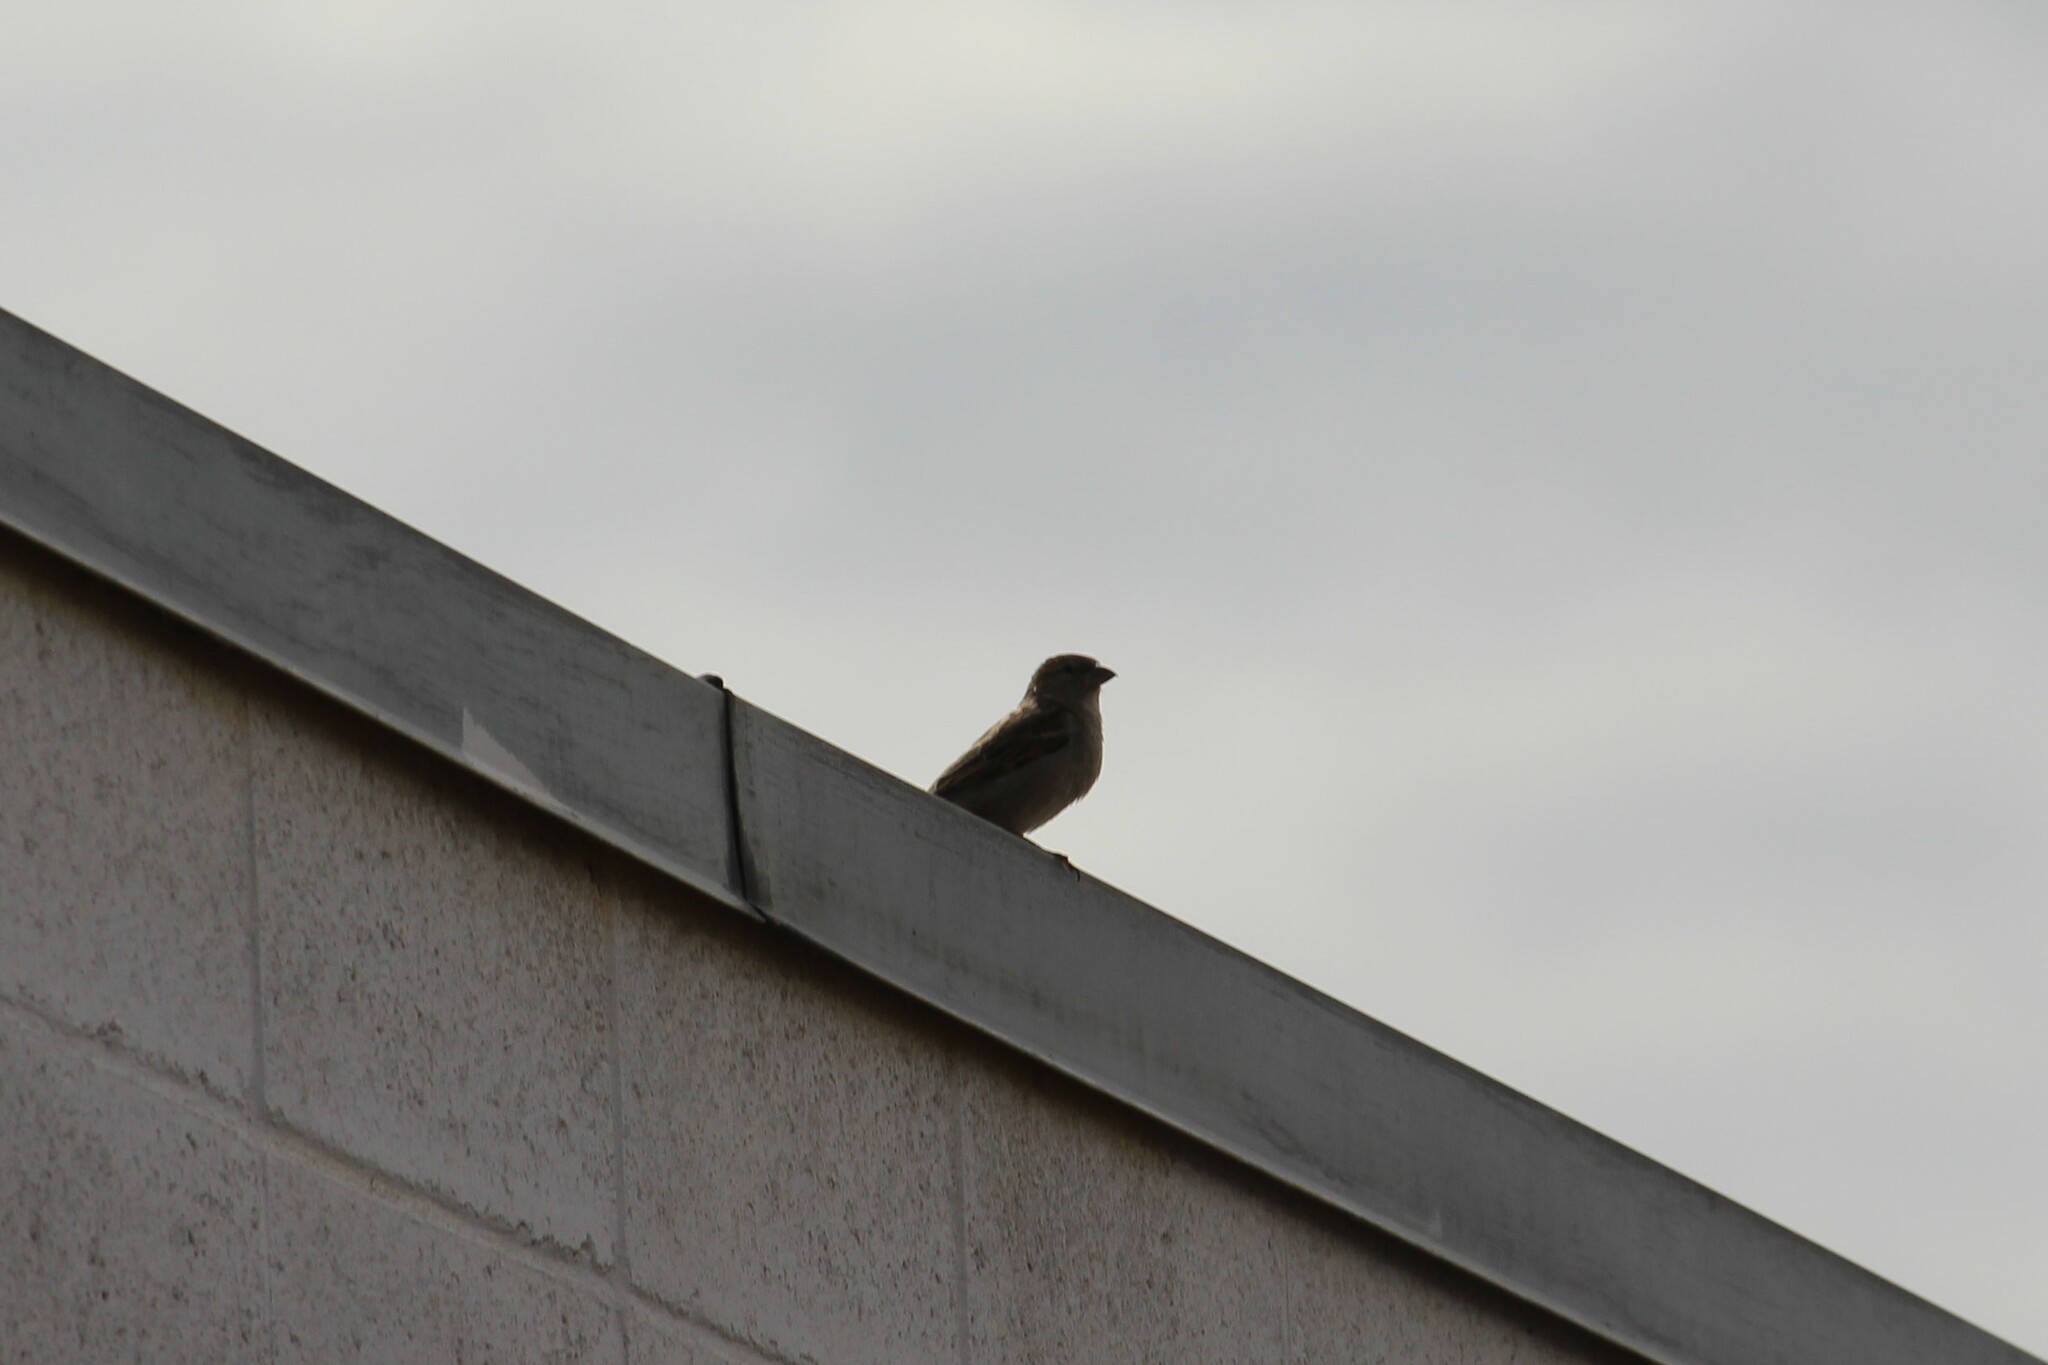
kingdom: Animalia
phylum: Chordata
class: Aves
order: Passeriformes
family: Passeridae
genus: Passer
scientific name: Passer domesticus
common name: House sparrow
